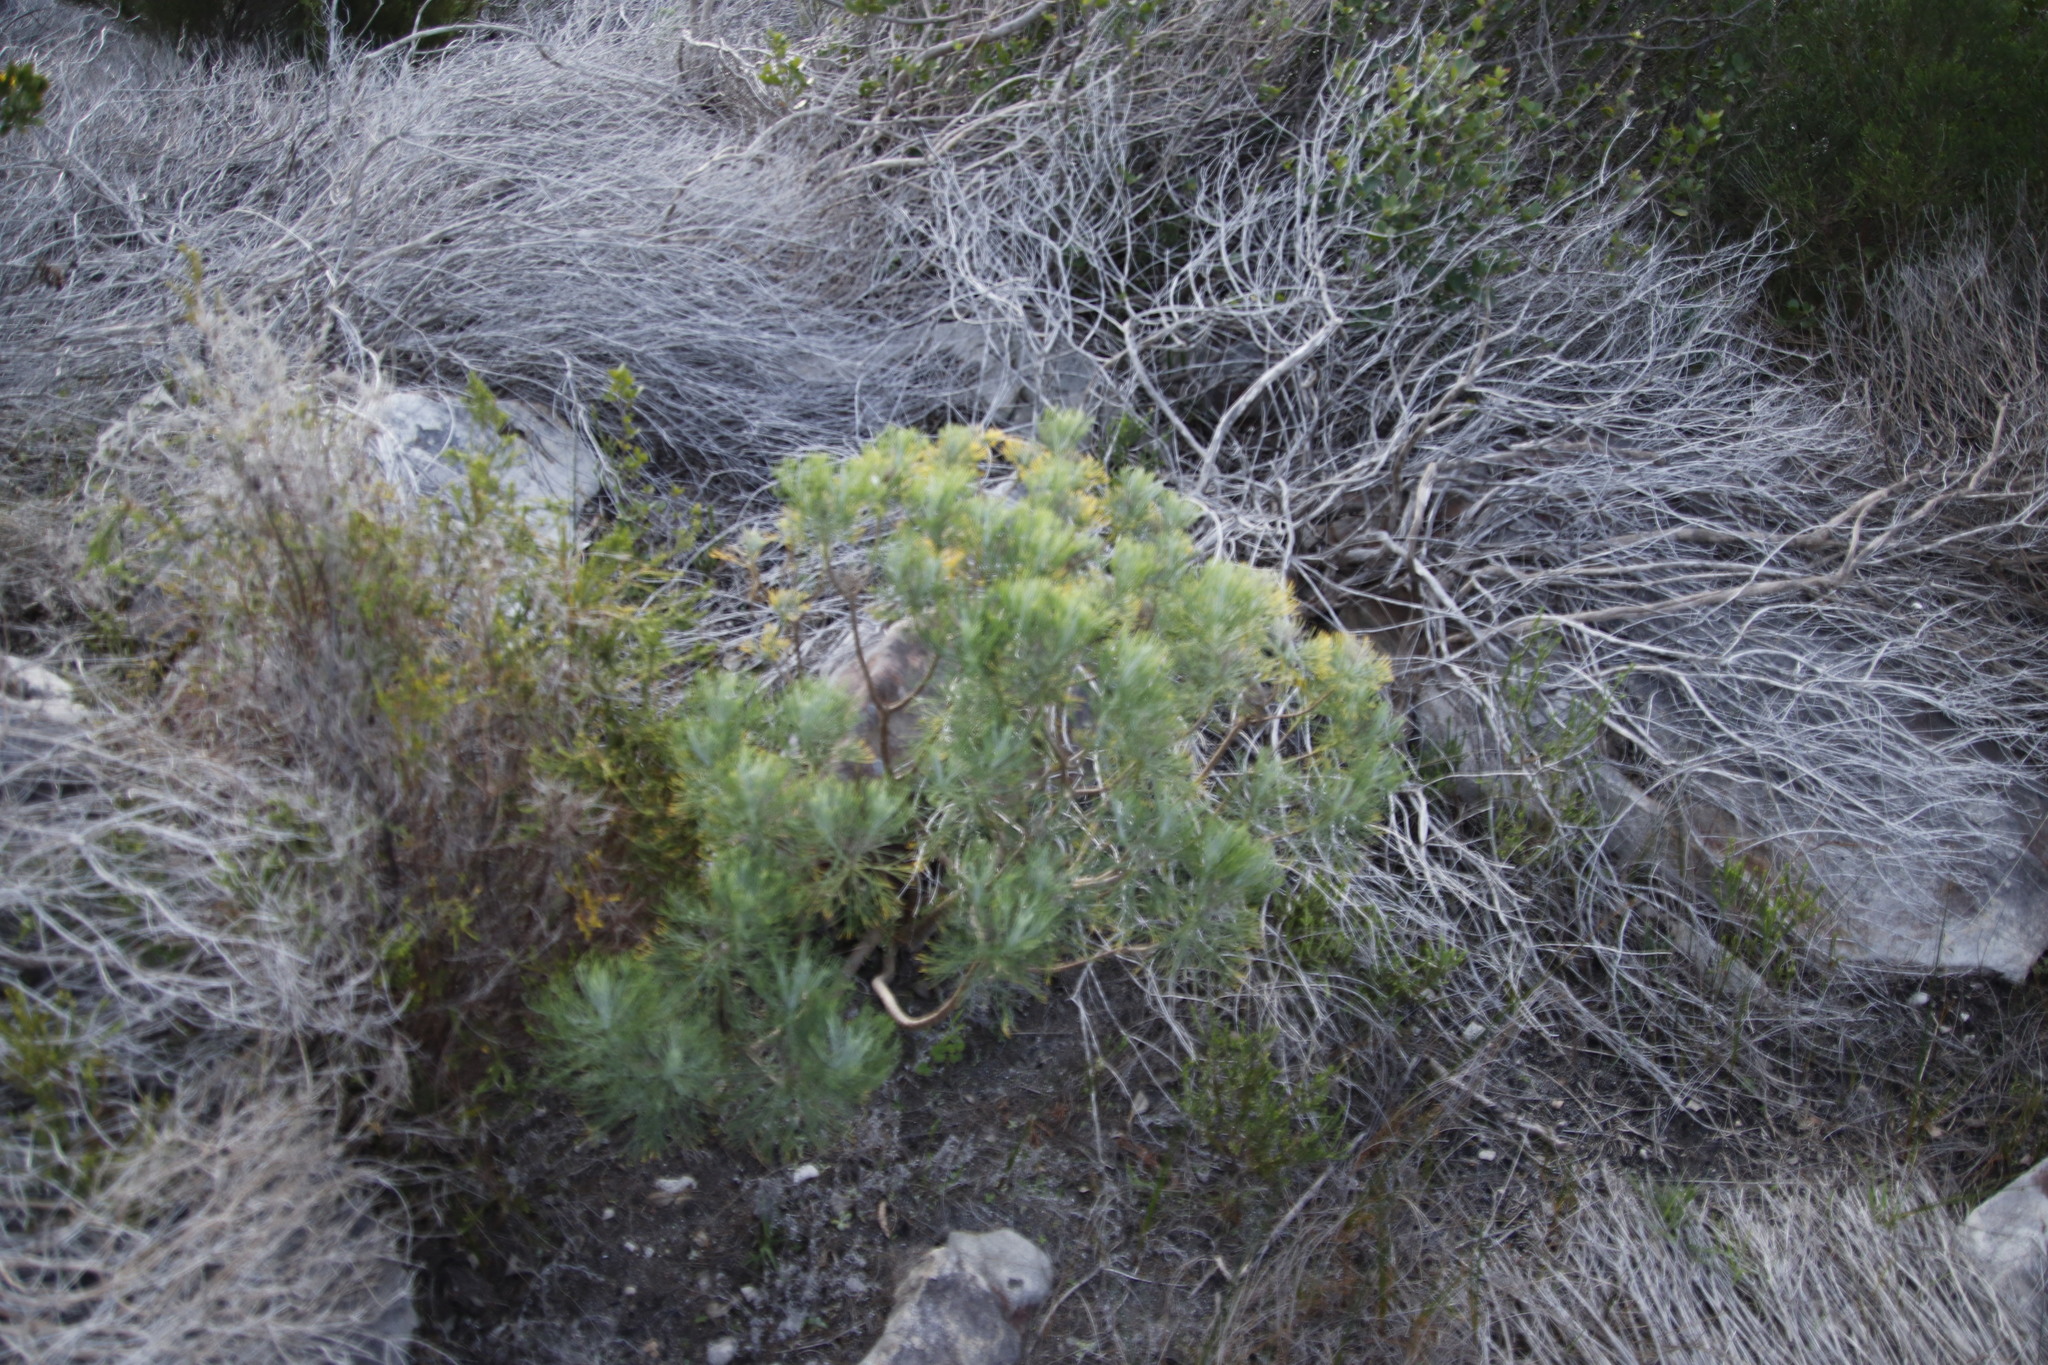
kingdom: Plantae
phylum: Tracheophyta
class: Magnoliopsida
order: Asterales
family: Asteraceae
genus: Hymenolepis
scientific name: Hymenolepis crithmifolia
